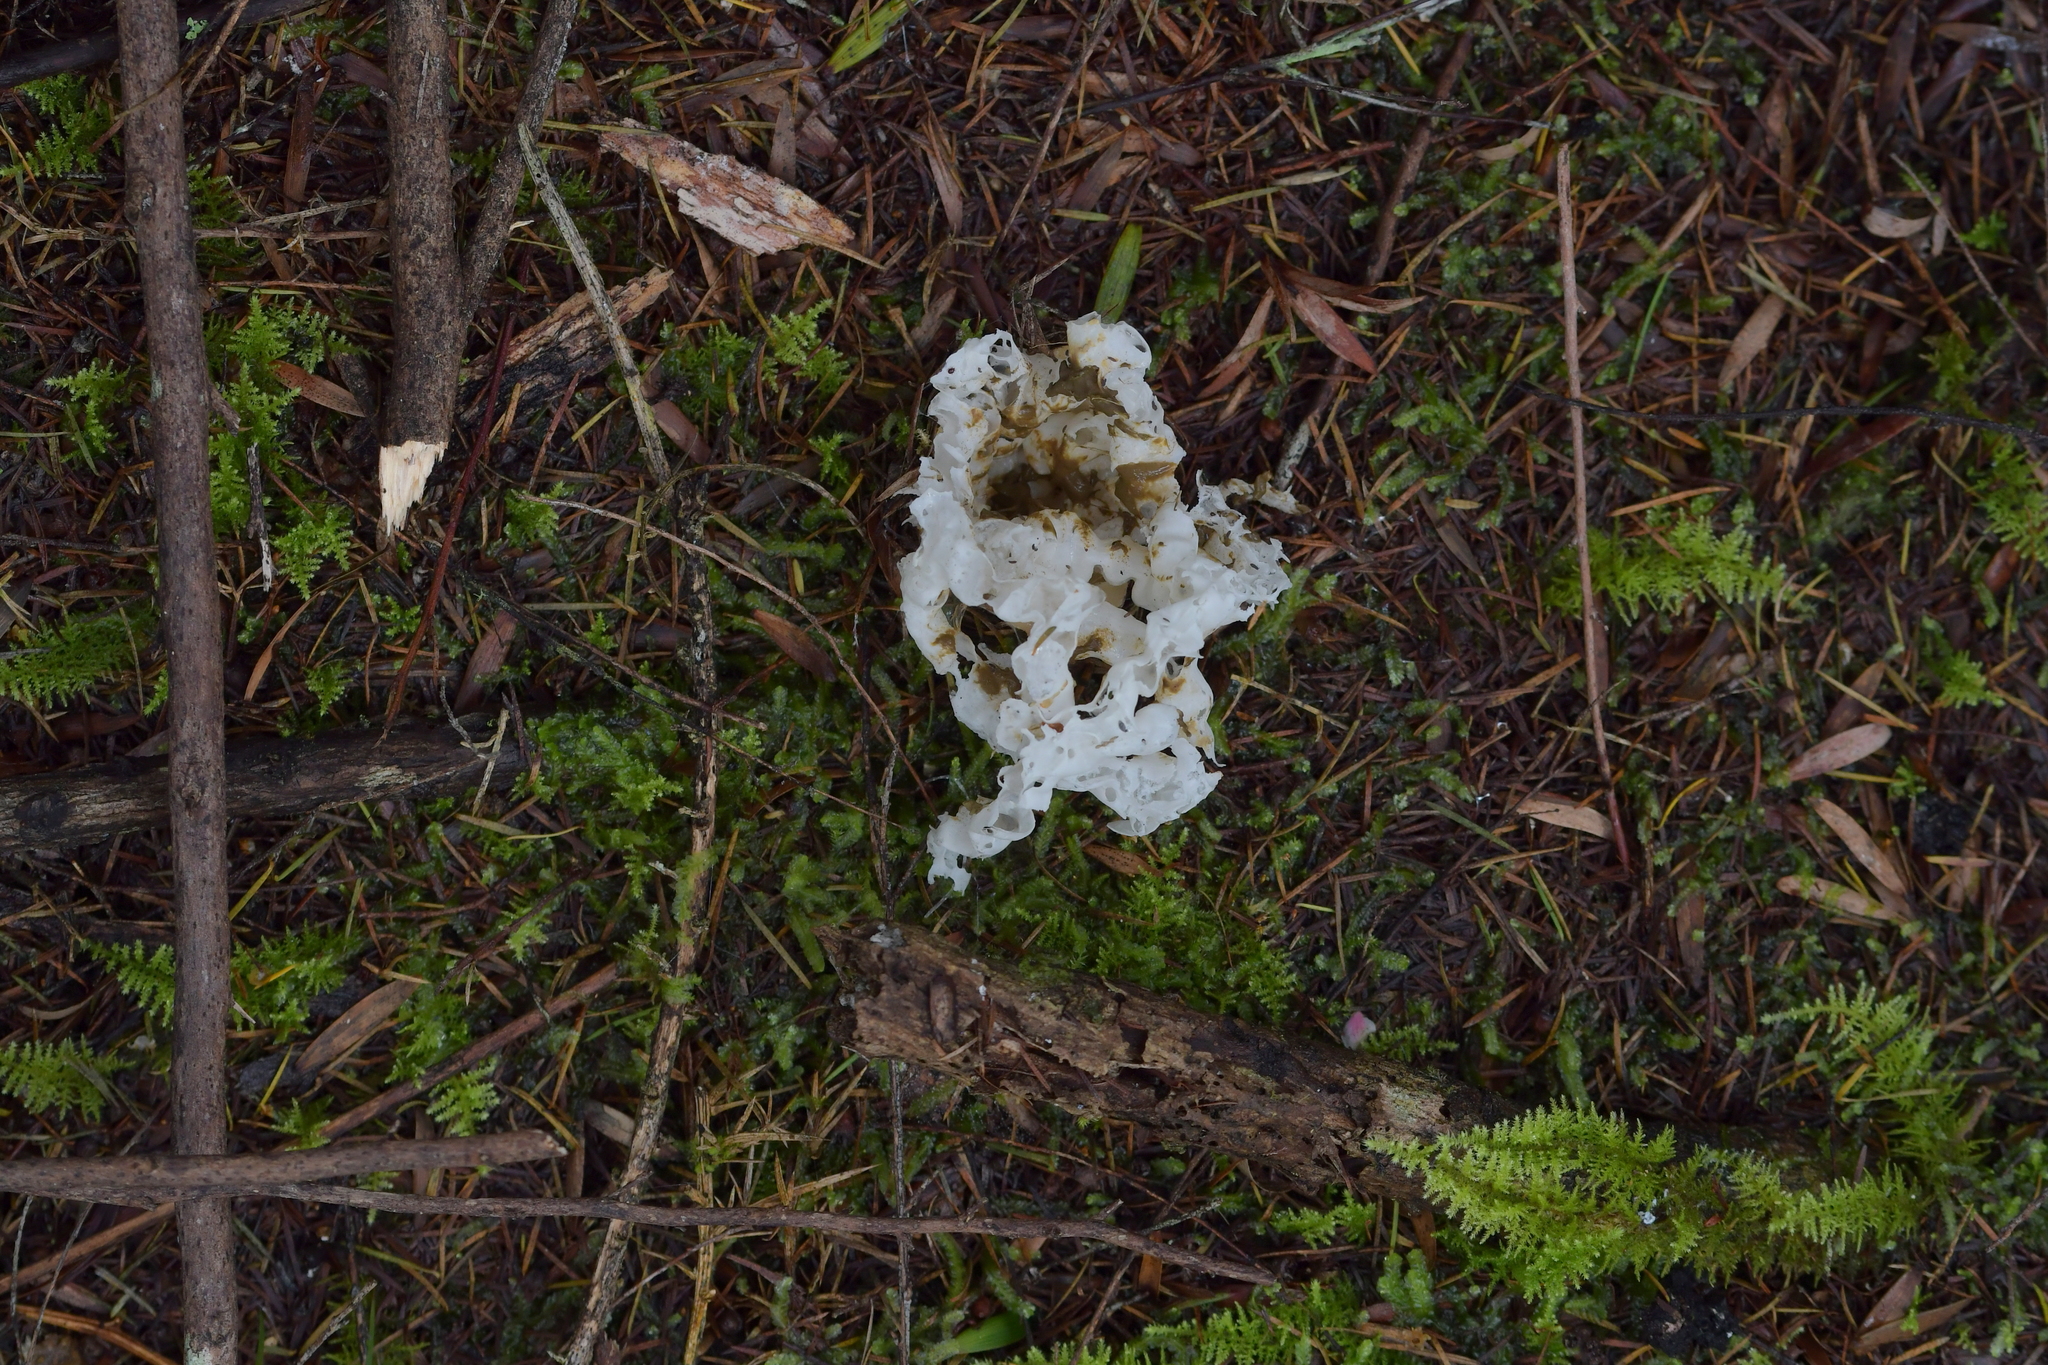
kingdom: Fungi
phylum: Basidiomycota
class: Agaricomycetes
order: Phallales
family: Phallaceae
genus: Ileodictyon
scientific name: Ileodictyon cibarium
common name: Basket fungus
